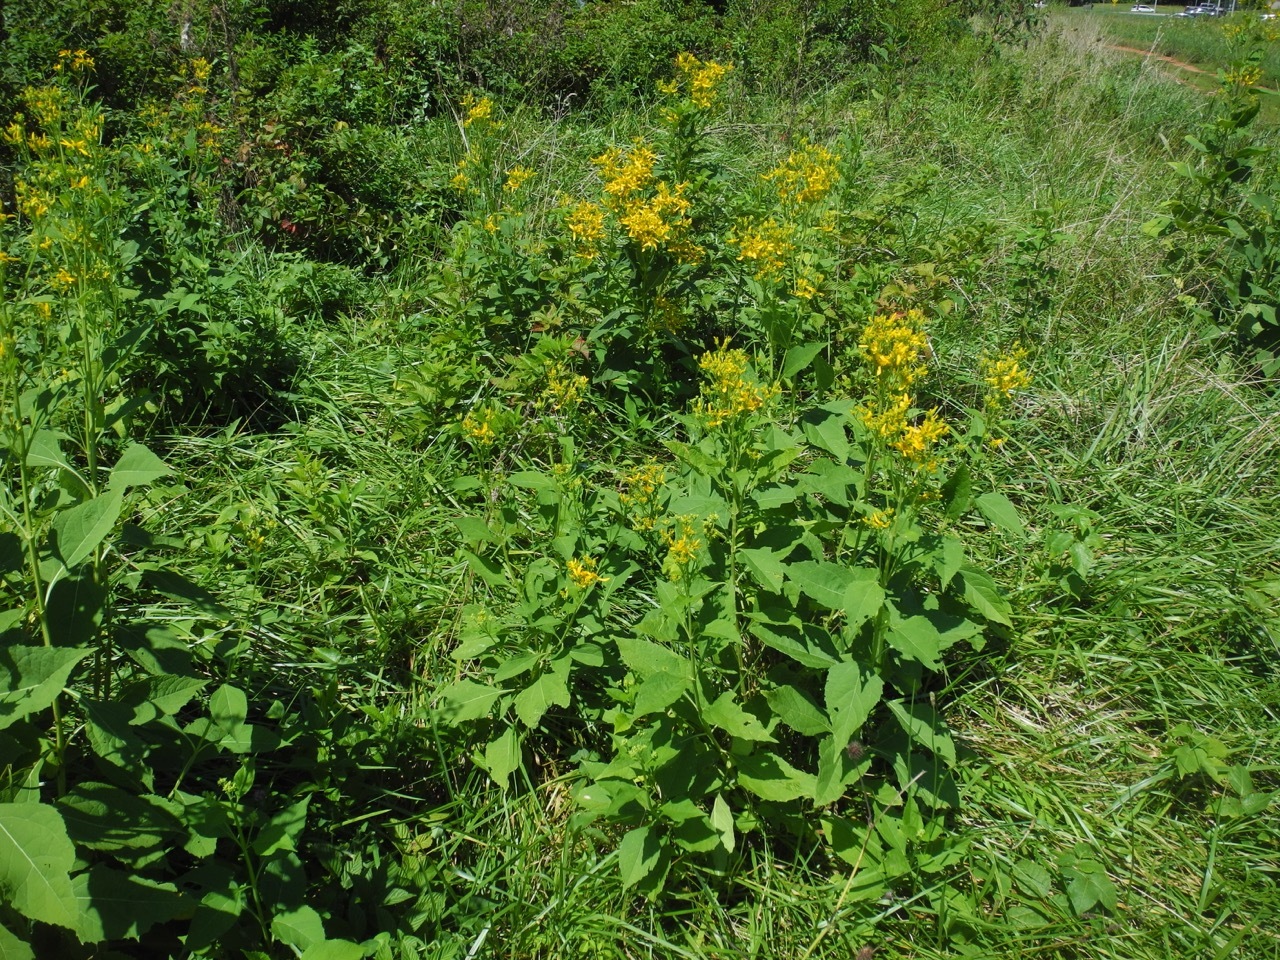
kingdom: Plantae
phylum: Tracheophyta
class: Magnoliopsida
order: Asterales
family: Asteraceae
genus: Verbesina
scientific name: Verbesina occidentalis
